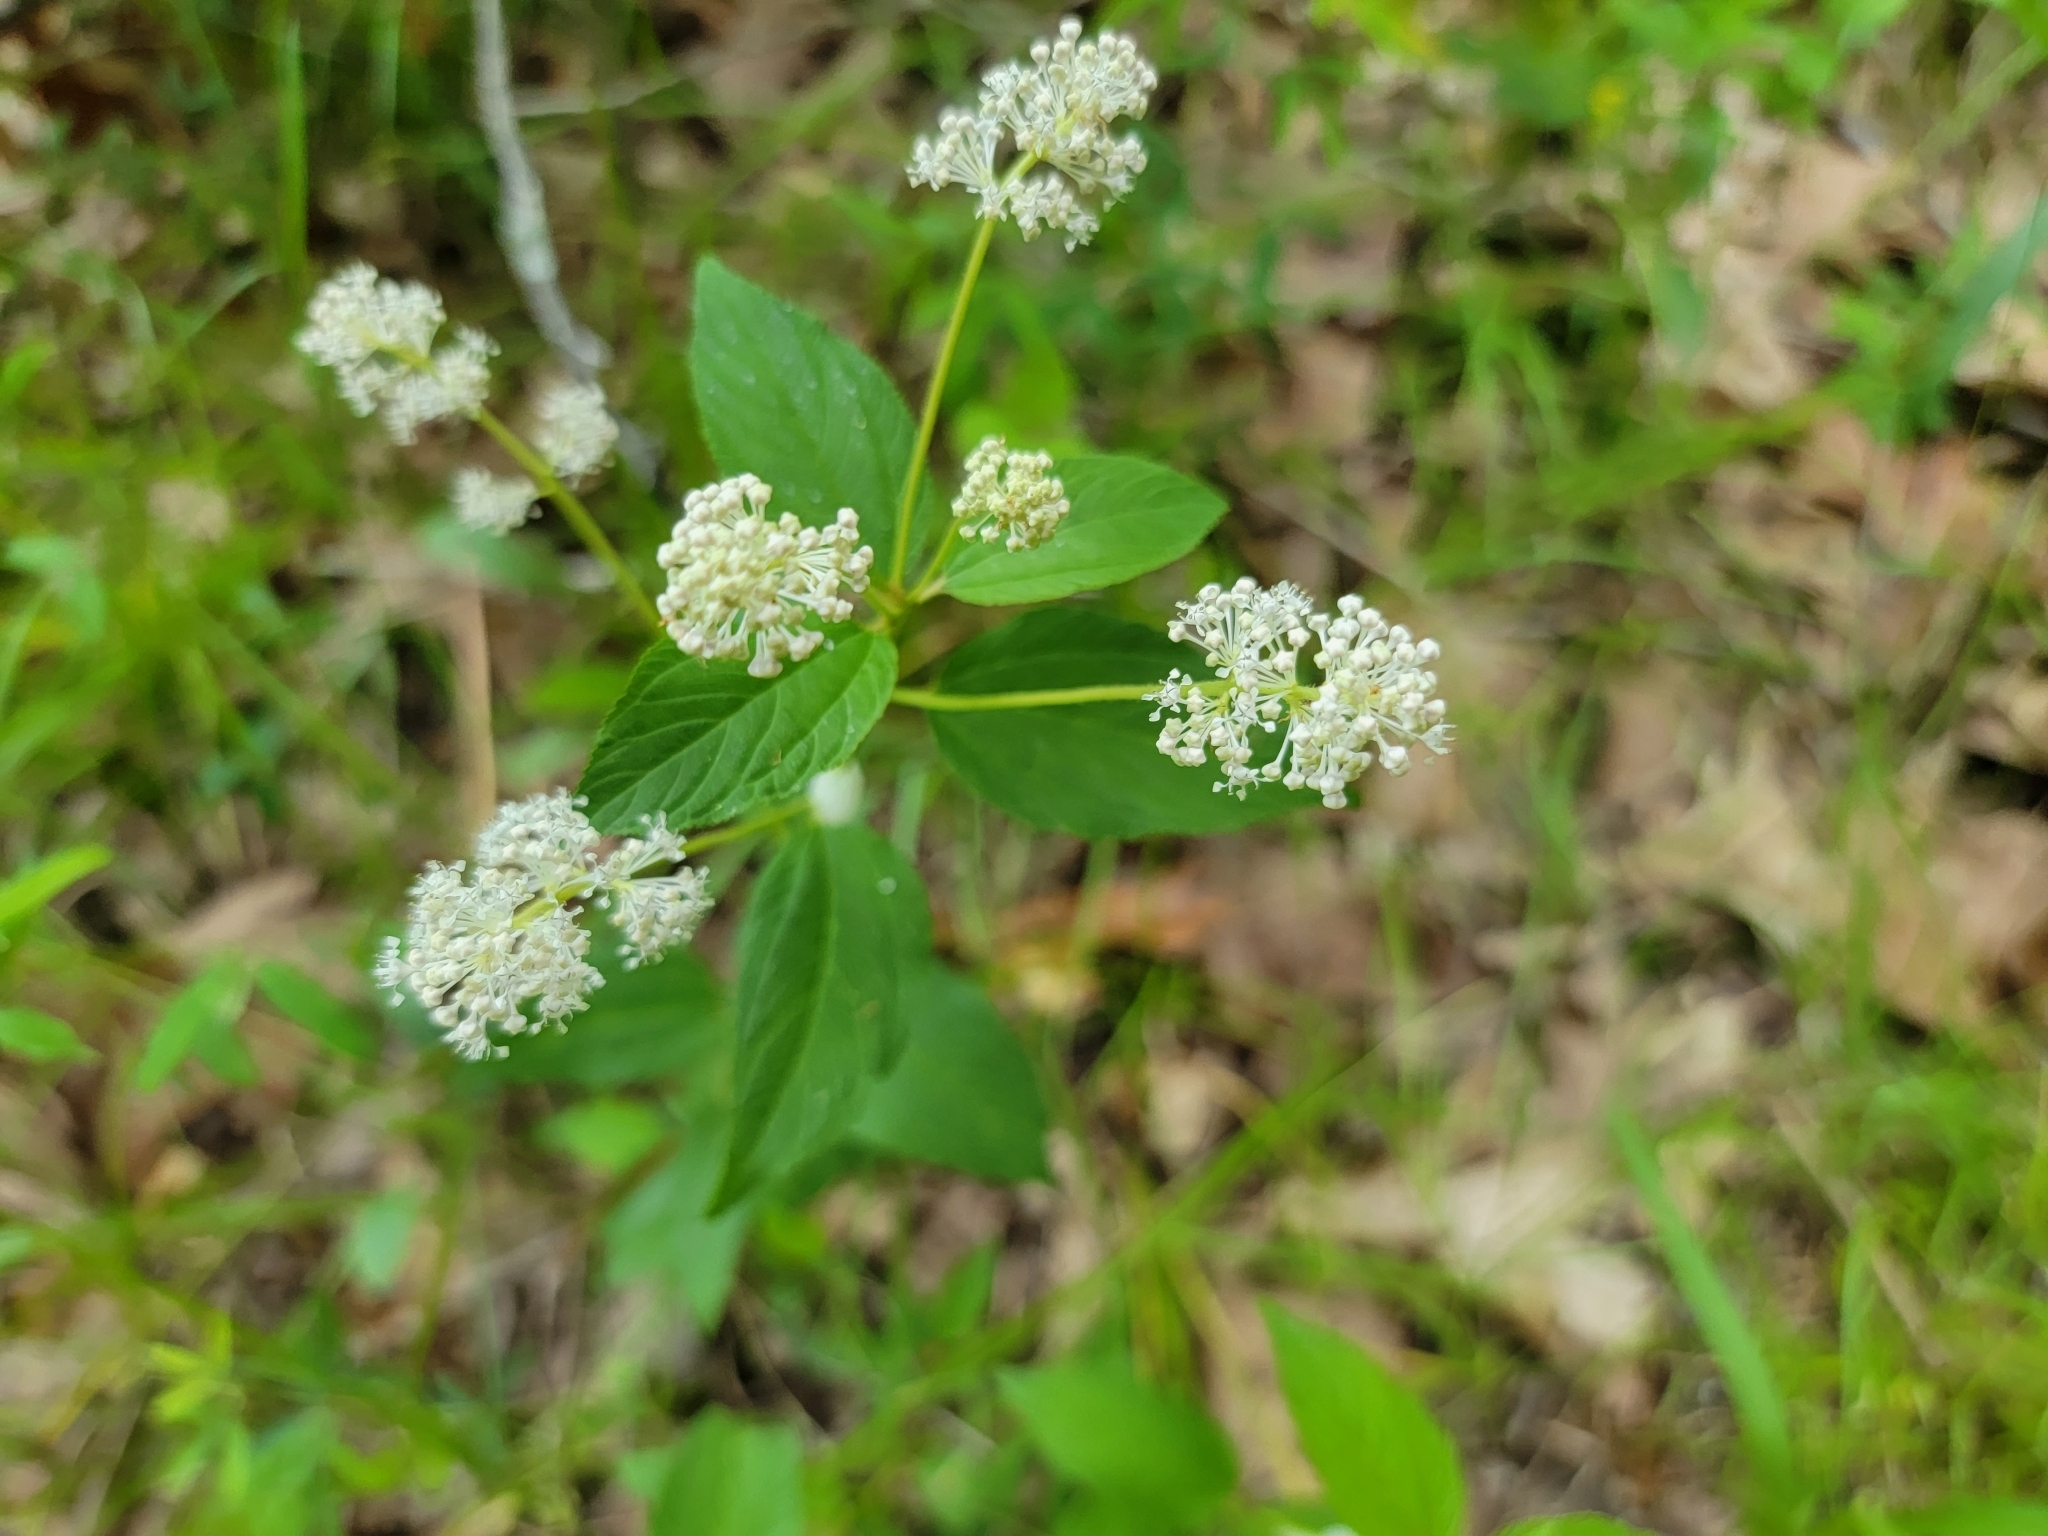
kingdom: Plantae
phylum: Tracheophyta
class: Magnoliopsida
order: Rosales
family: Rhamnaceae
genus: Ceanothus
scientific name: Ceanothus americanus
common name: Redroot
